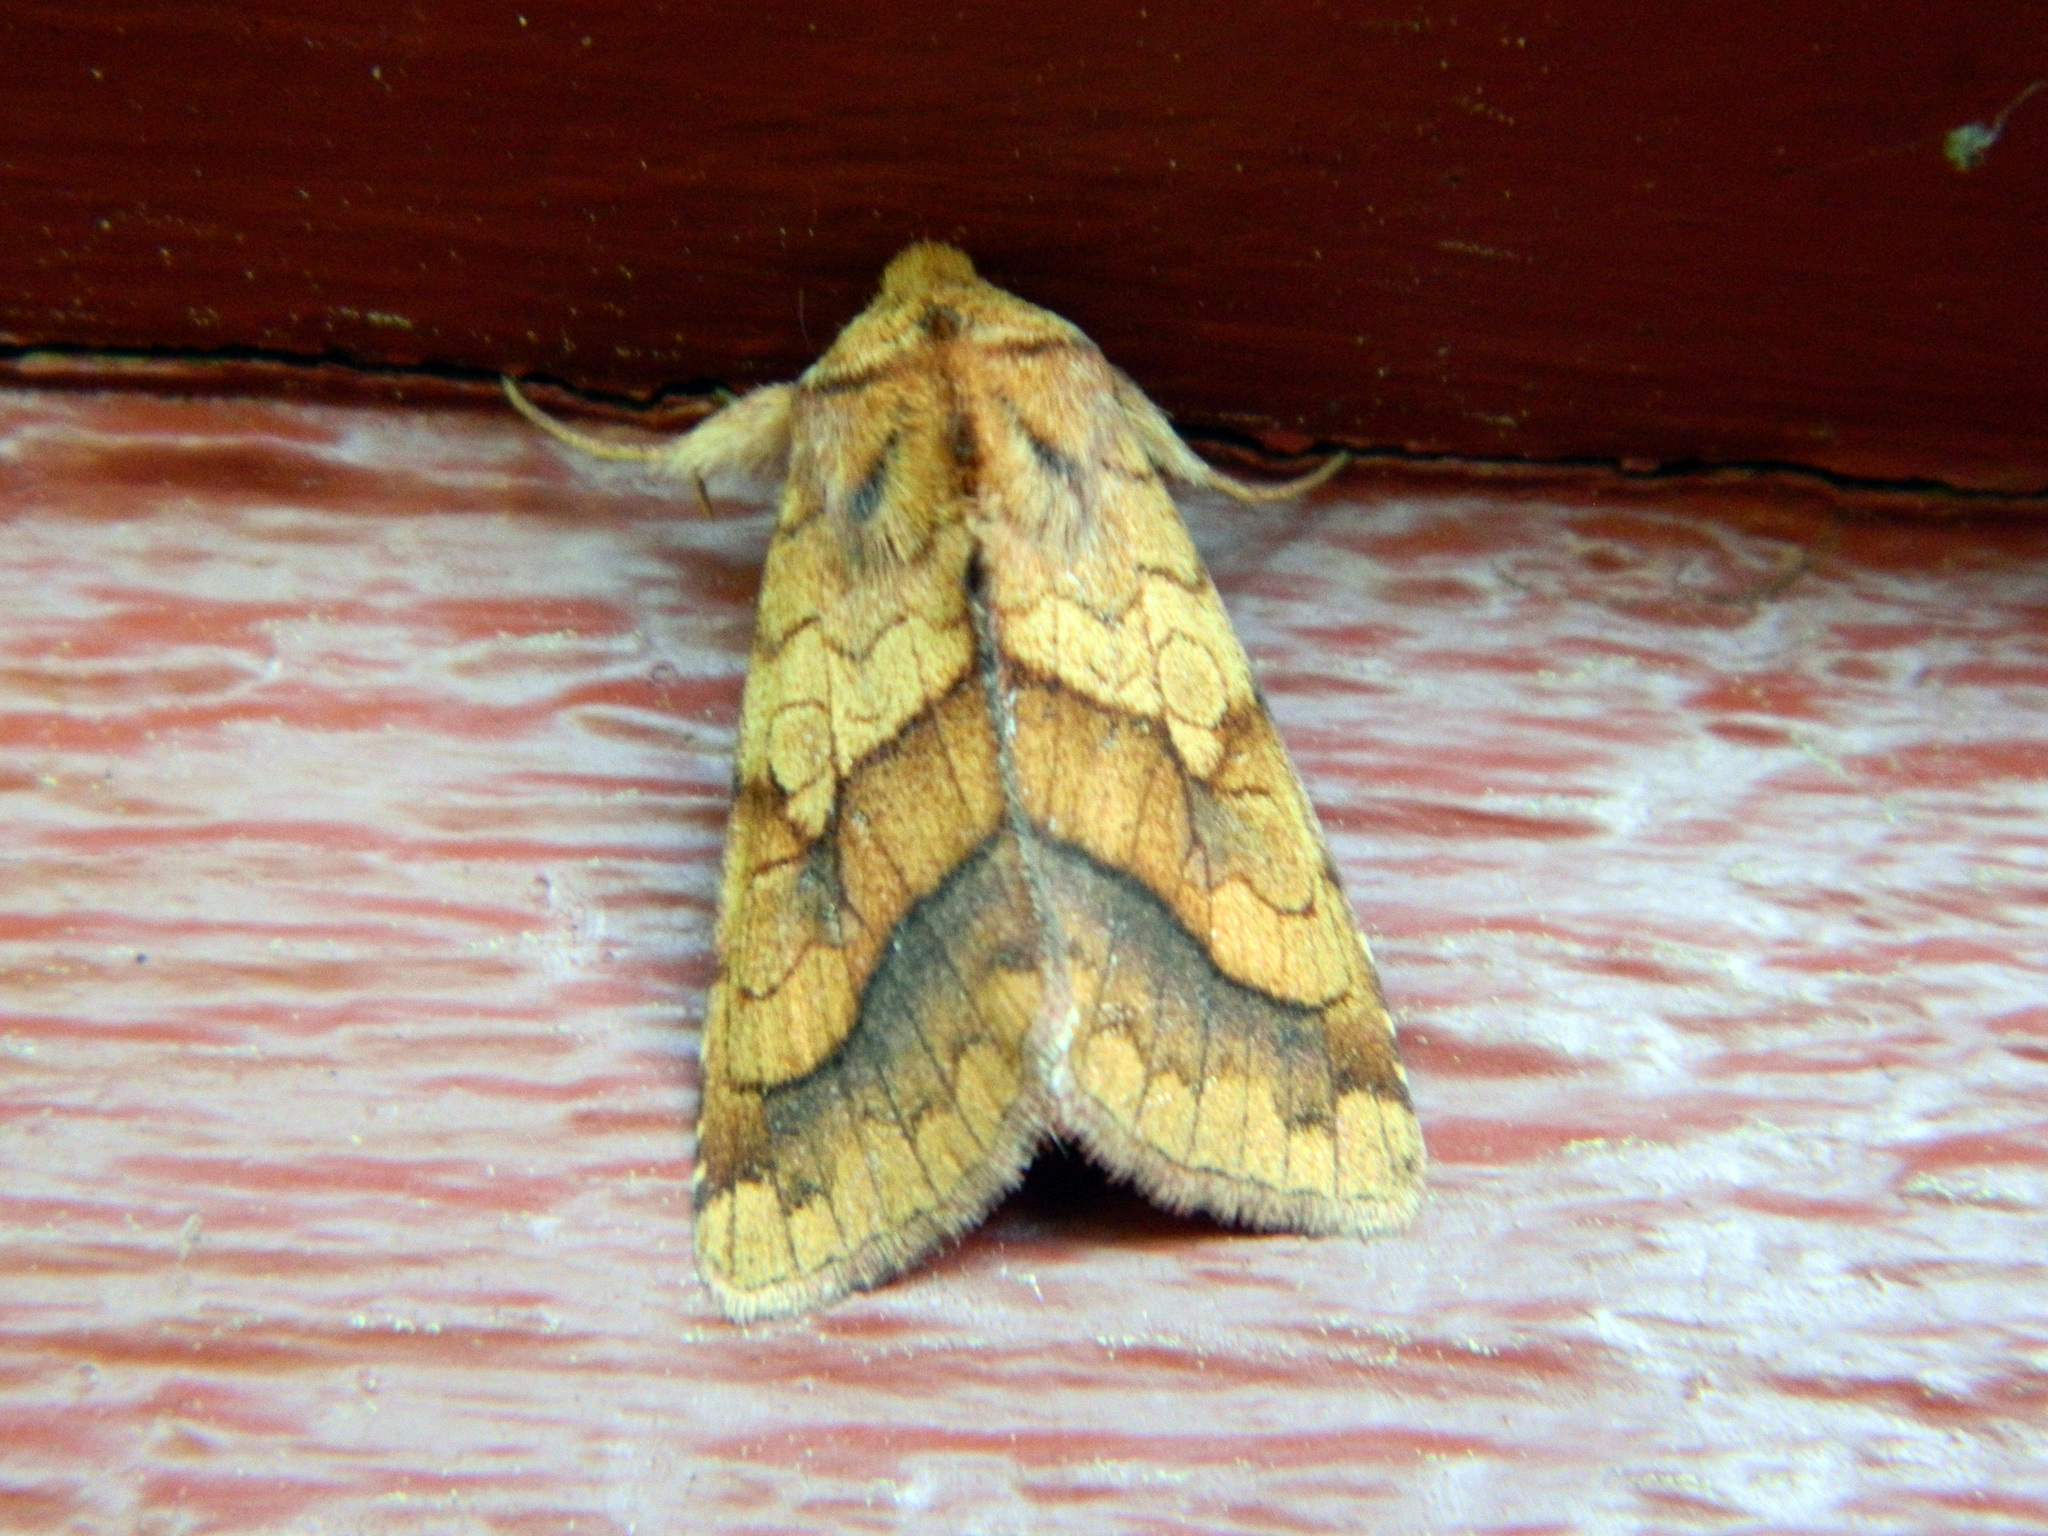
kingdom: Animalia
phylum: Arthropoda
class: Insecta
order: Lepidoptera
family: Noctuidae
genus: Pyrrhia
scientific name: Pyrrhia exprimens
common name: Purple-lined sallow
